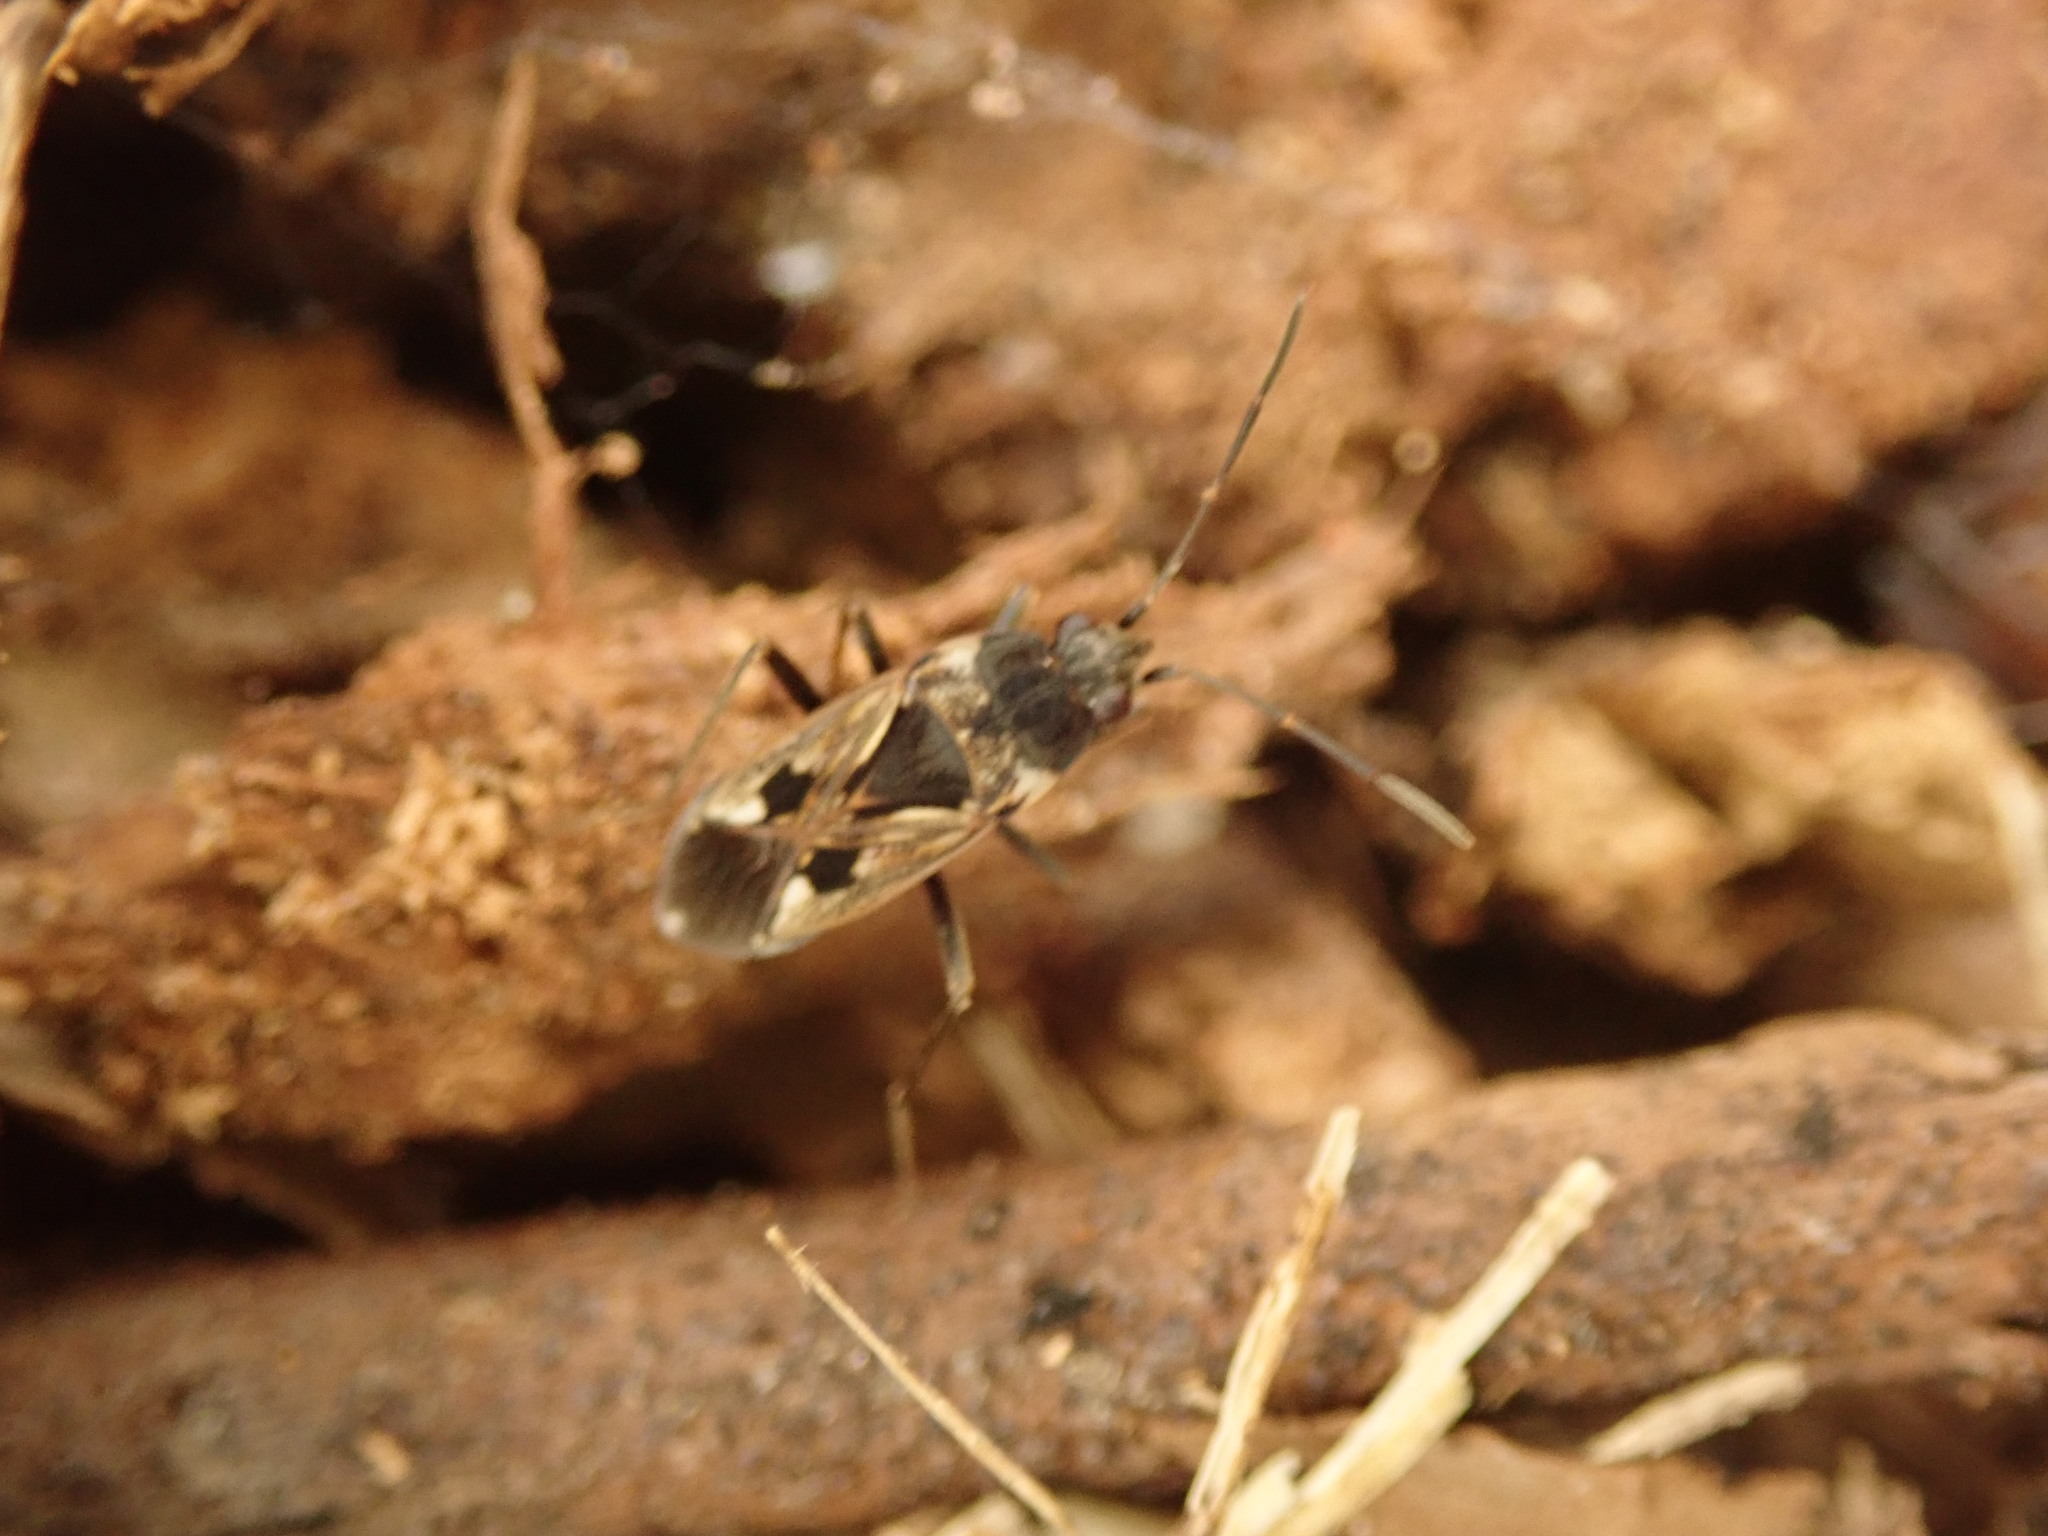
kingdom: Animalia
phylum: Arthropoda
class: Insecta
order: Hemiptera
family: Rhyparochromidae
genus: Rhyparochromus
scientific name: Rhyparochromus vulgaris
